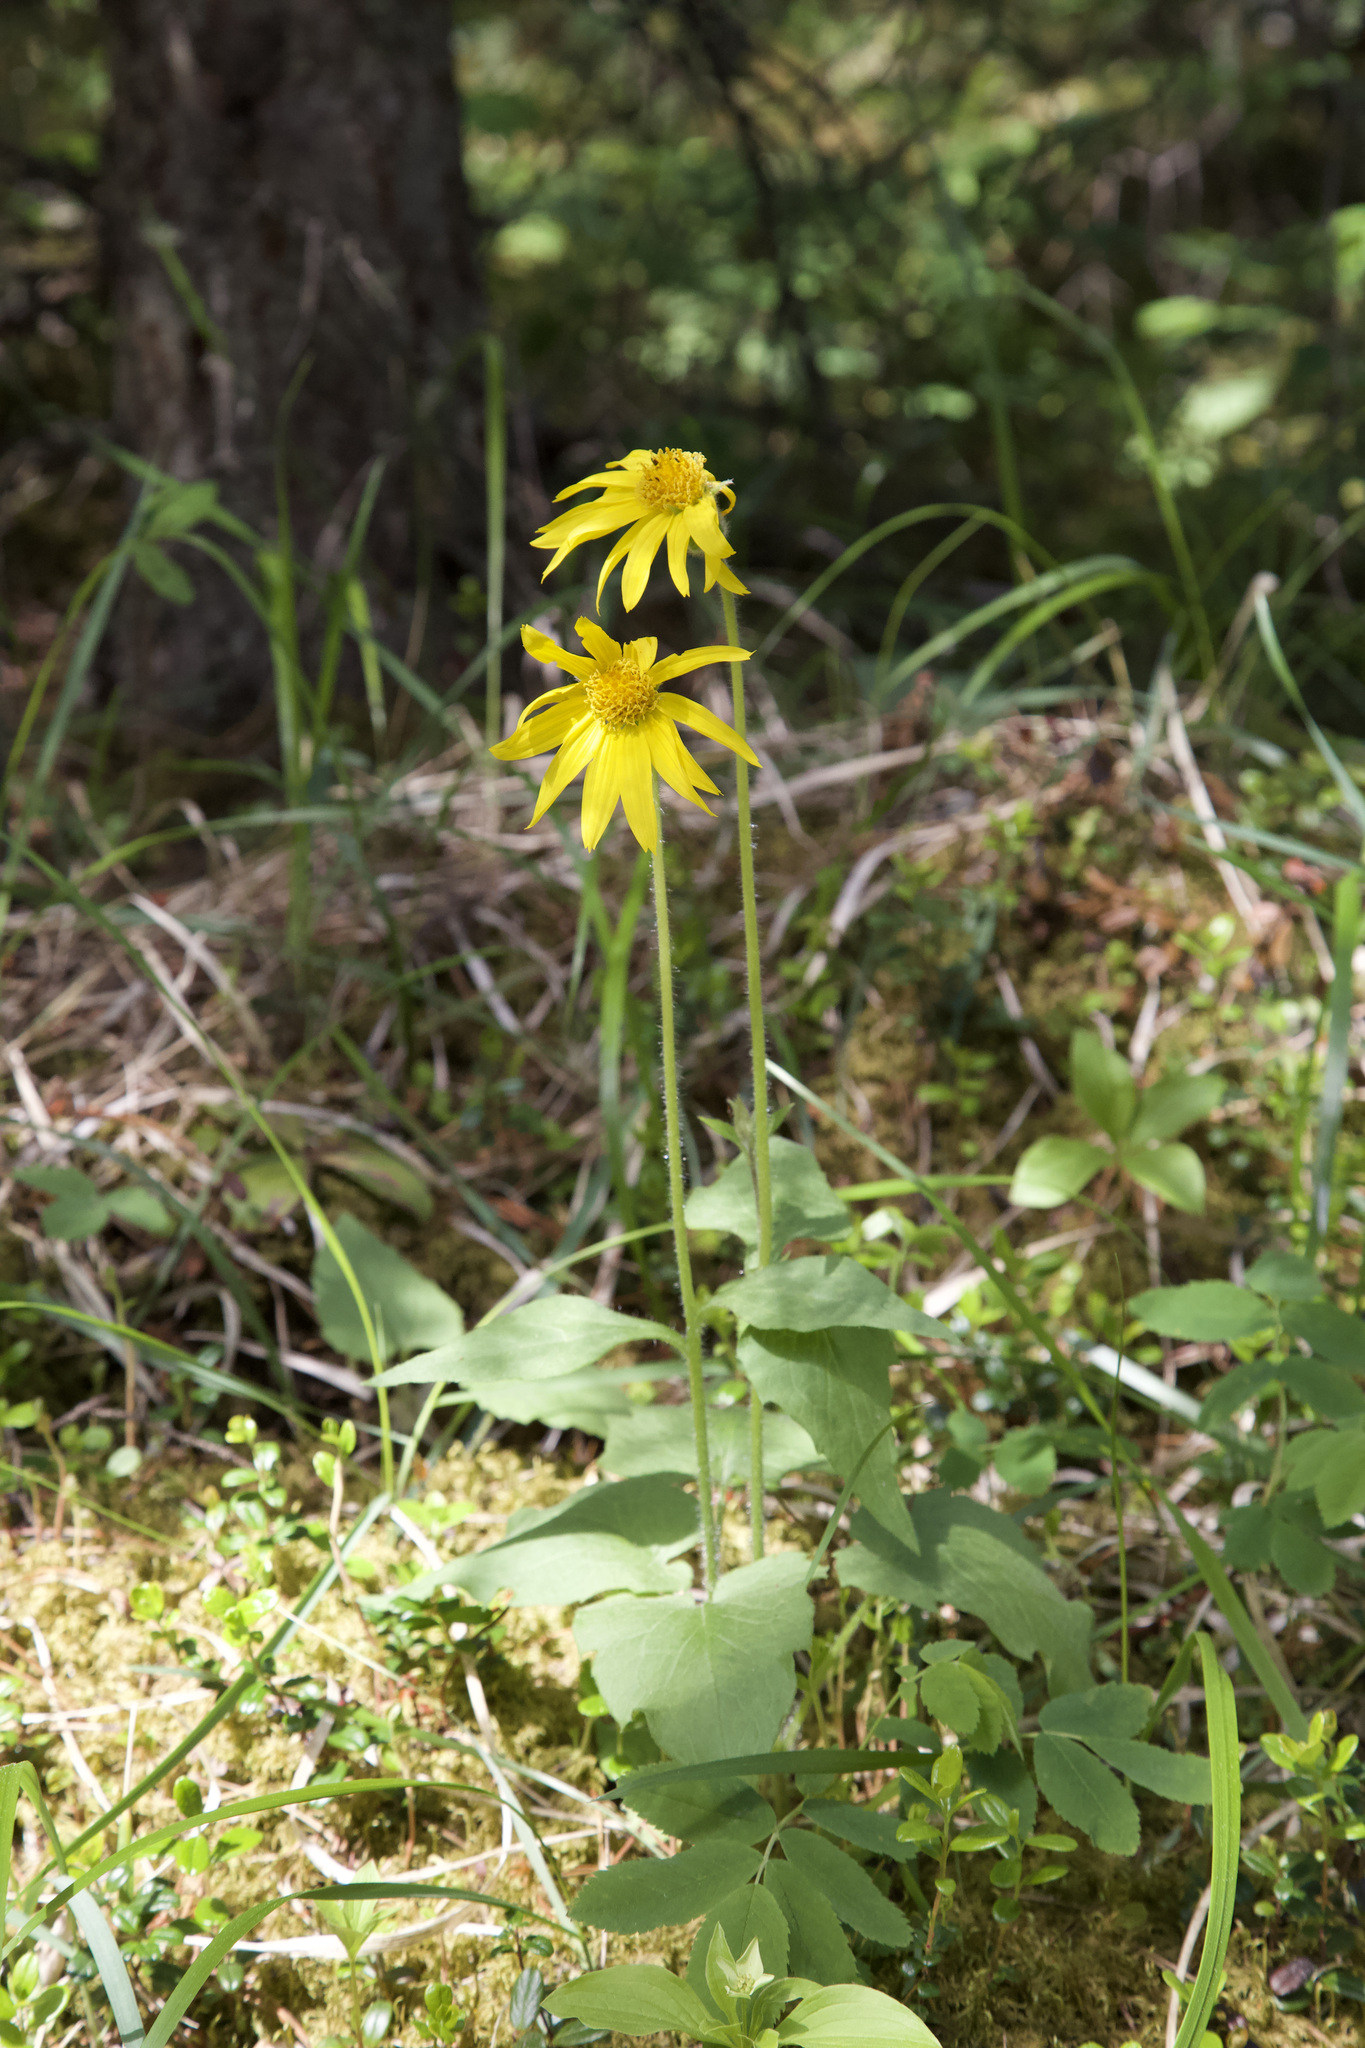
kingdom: Plantae
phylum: Tracheophyta
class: Magnoliopsida
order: Asterales
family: Asteraceae
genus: Arnica
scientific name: Arnica cordifolia
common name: Heart-leaf arnica
